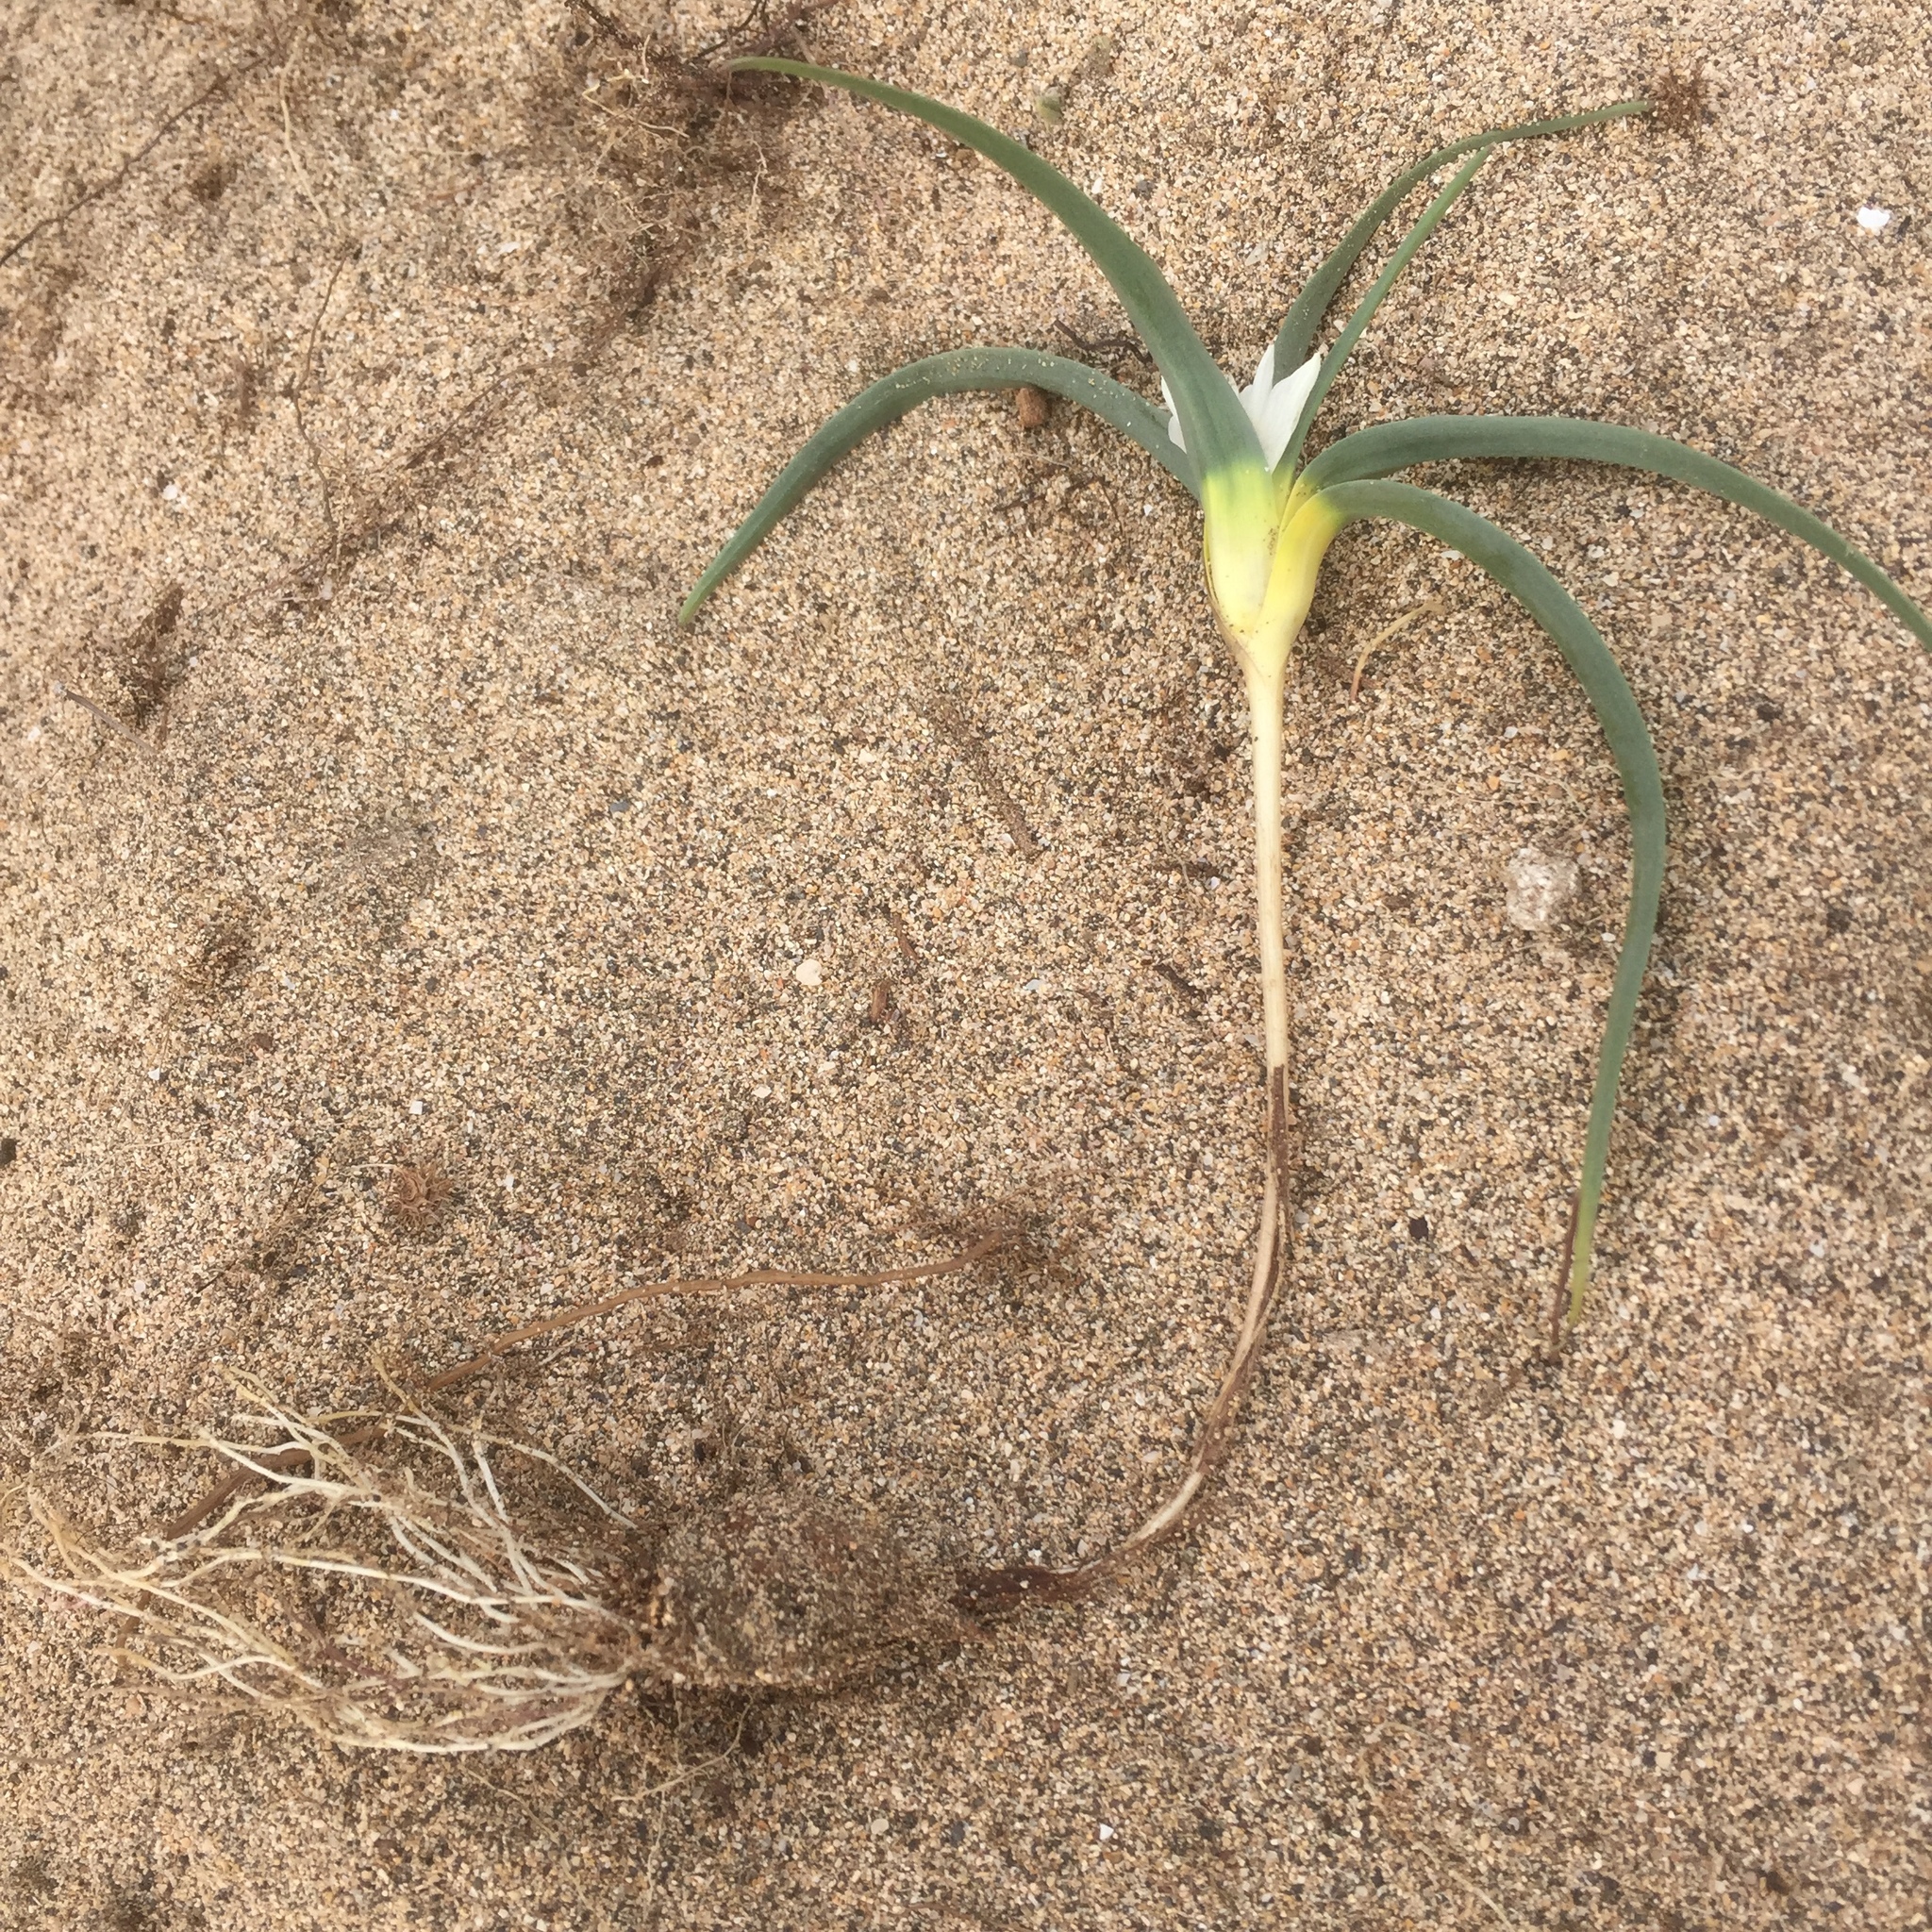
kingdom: Plantae
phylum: Tracheophyta
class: Liliopsida
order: Liliales
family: Colchicaceae
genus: Colchicum
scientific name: Colchicum psammophilum
